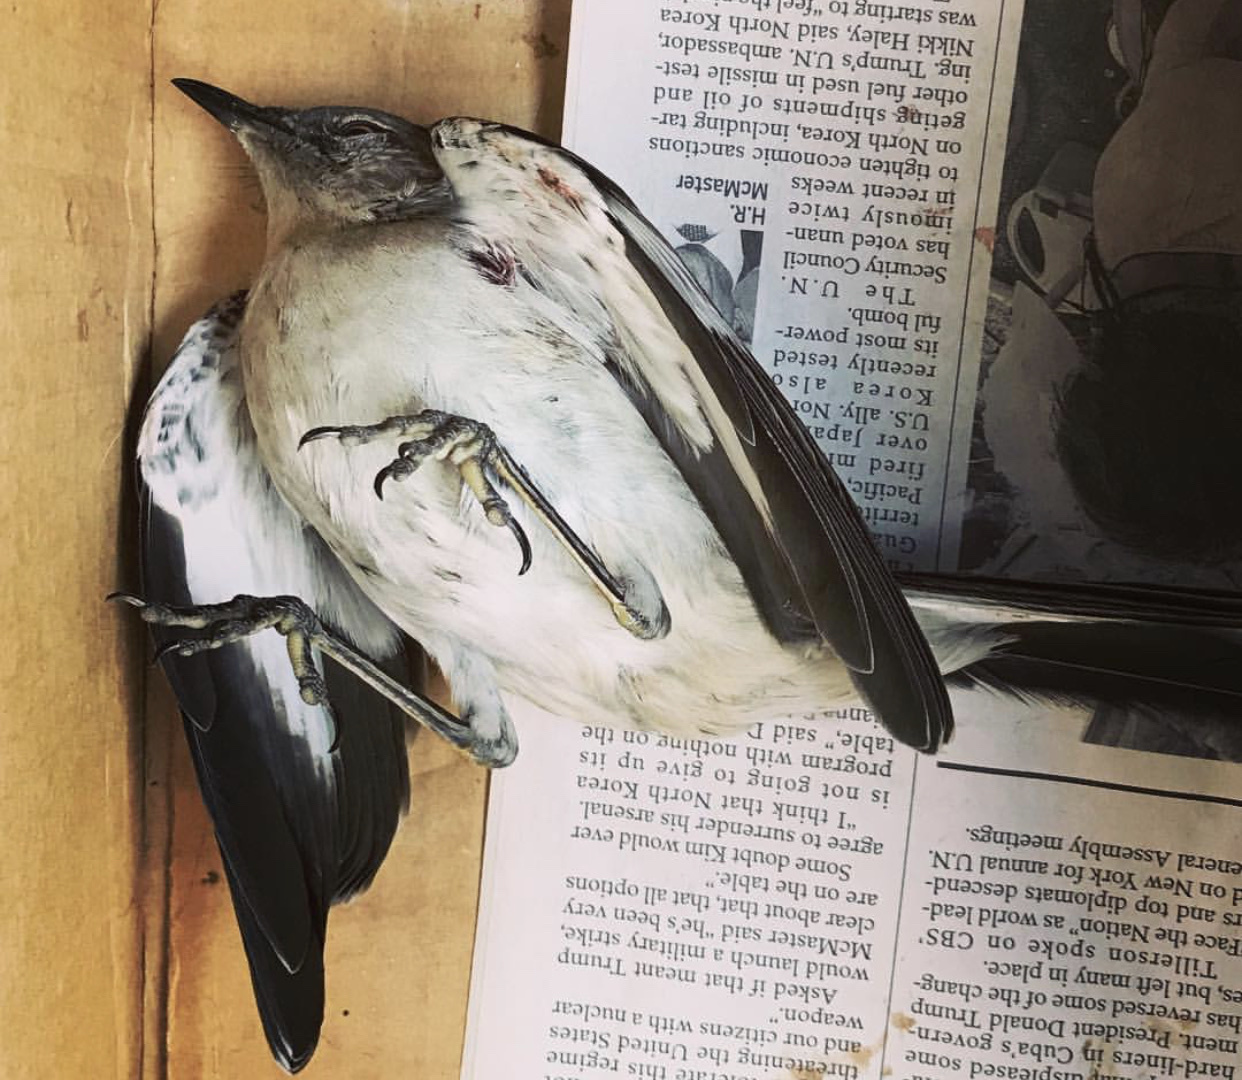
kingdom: Animalia
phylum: Chordata
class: Aves
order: Passeriformes
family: Mimidae
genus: Mimus
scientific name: Mimus polyglottos
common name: Northern mockingbird
